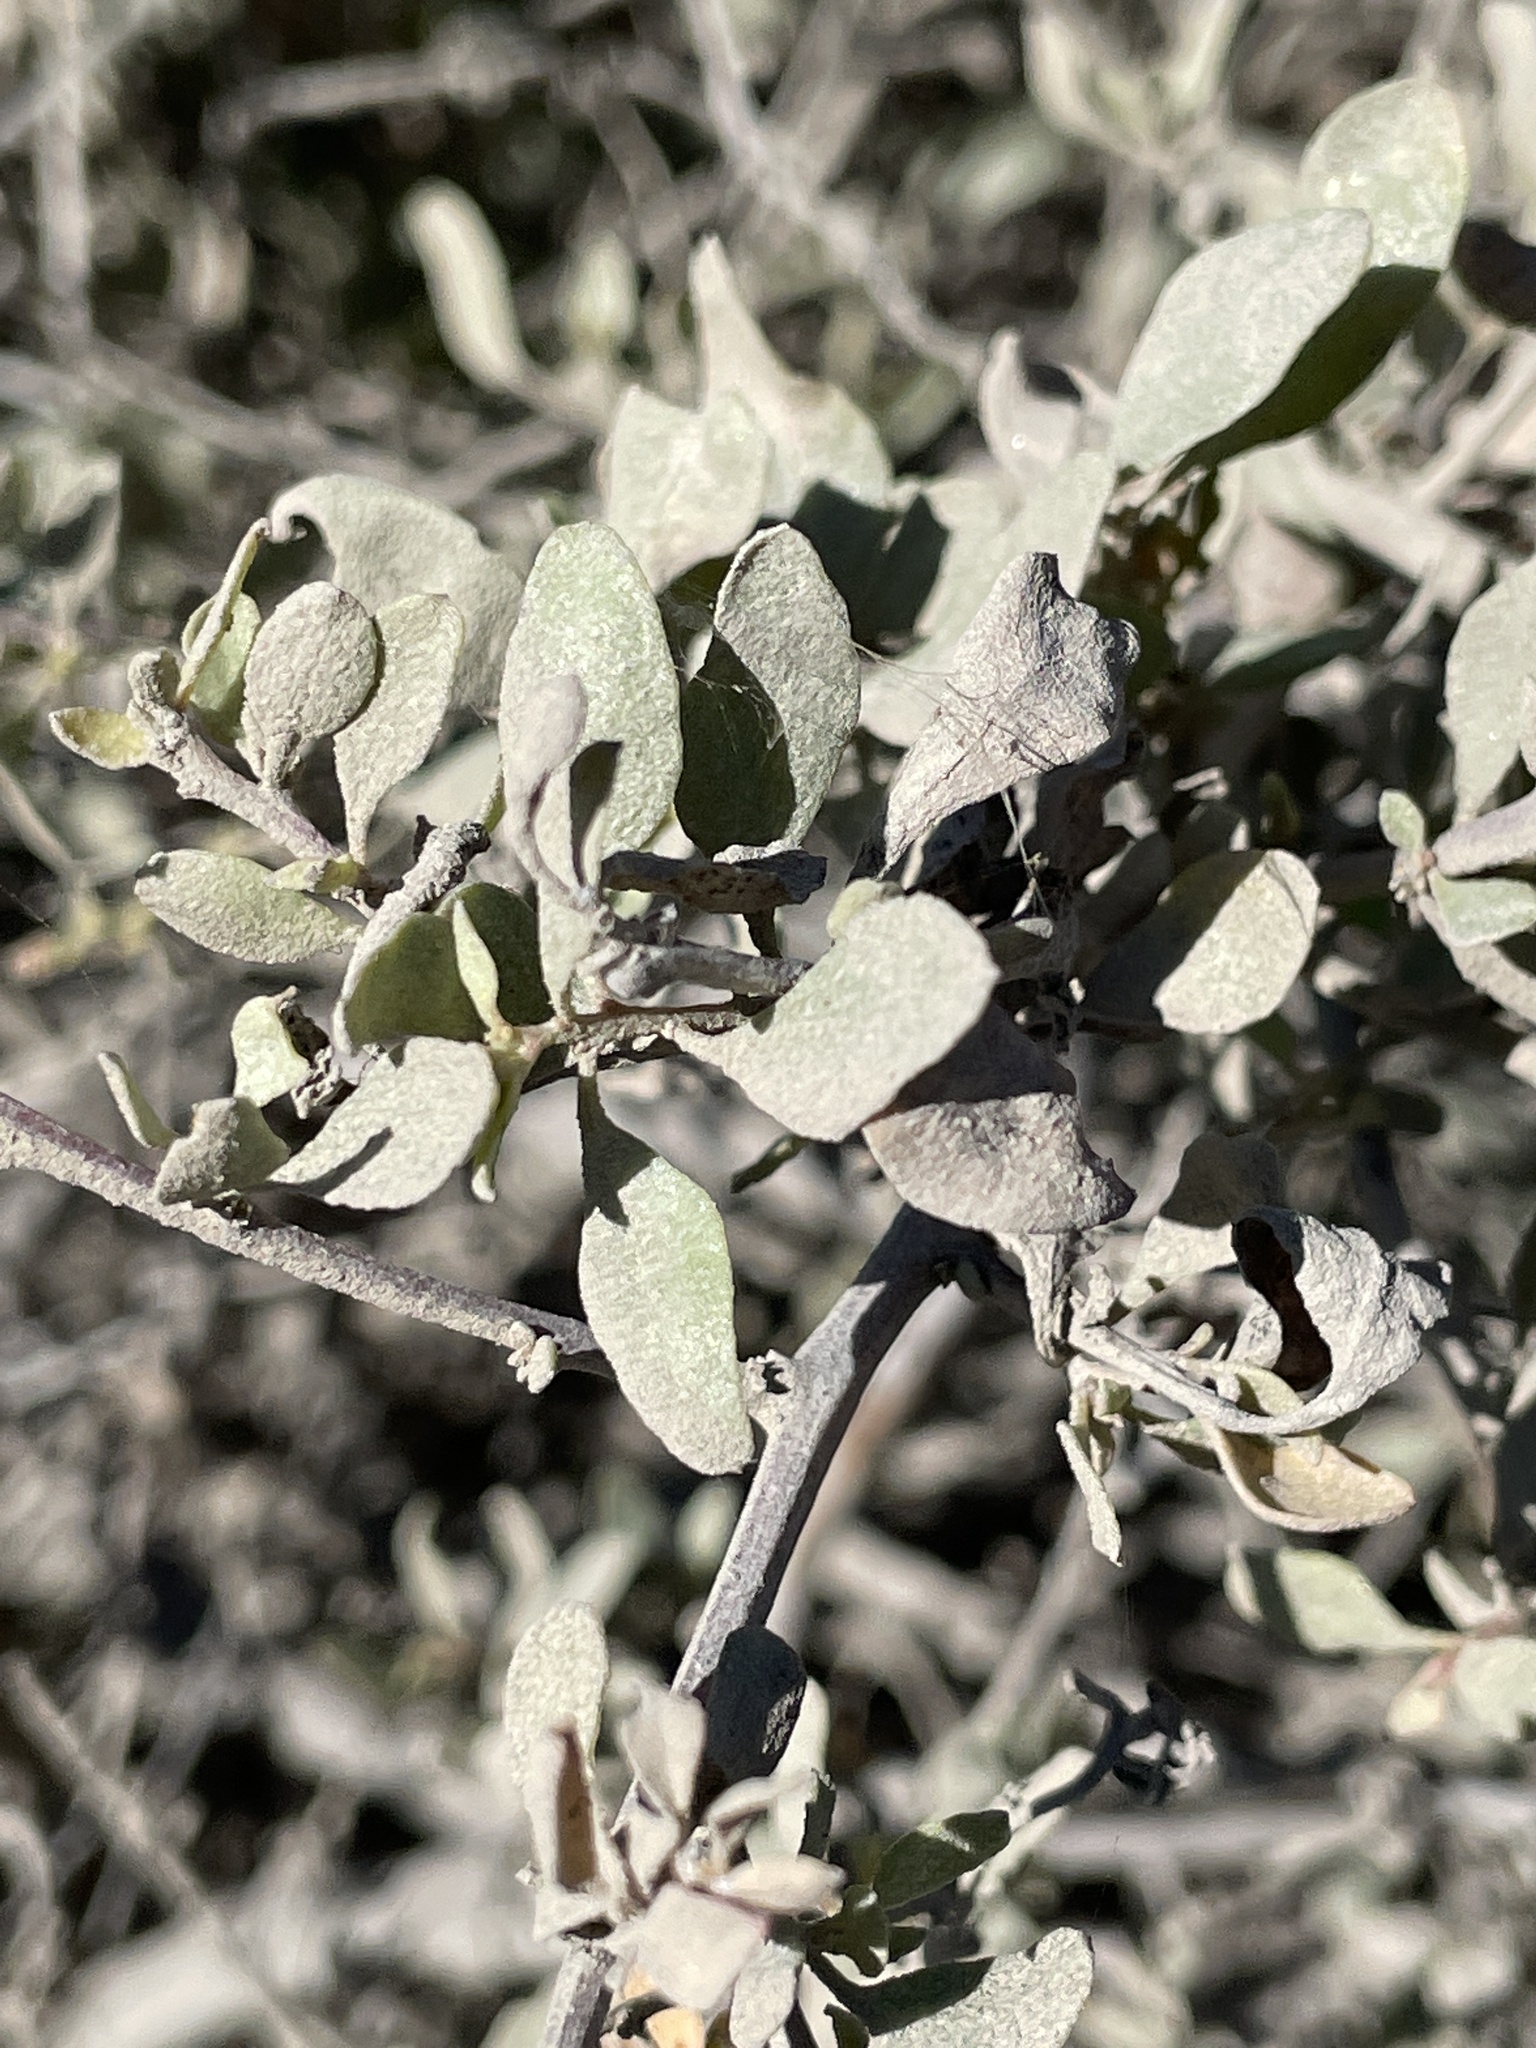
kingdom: Plantae
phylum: Tracheophyta
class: Magnoliopsida
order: Caryophyllales
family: Amaranthaceae
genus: Atriplex
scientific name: Atriplex lentiformis
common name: Big saltbush
